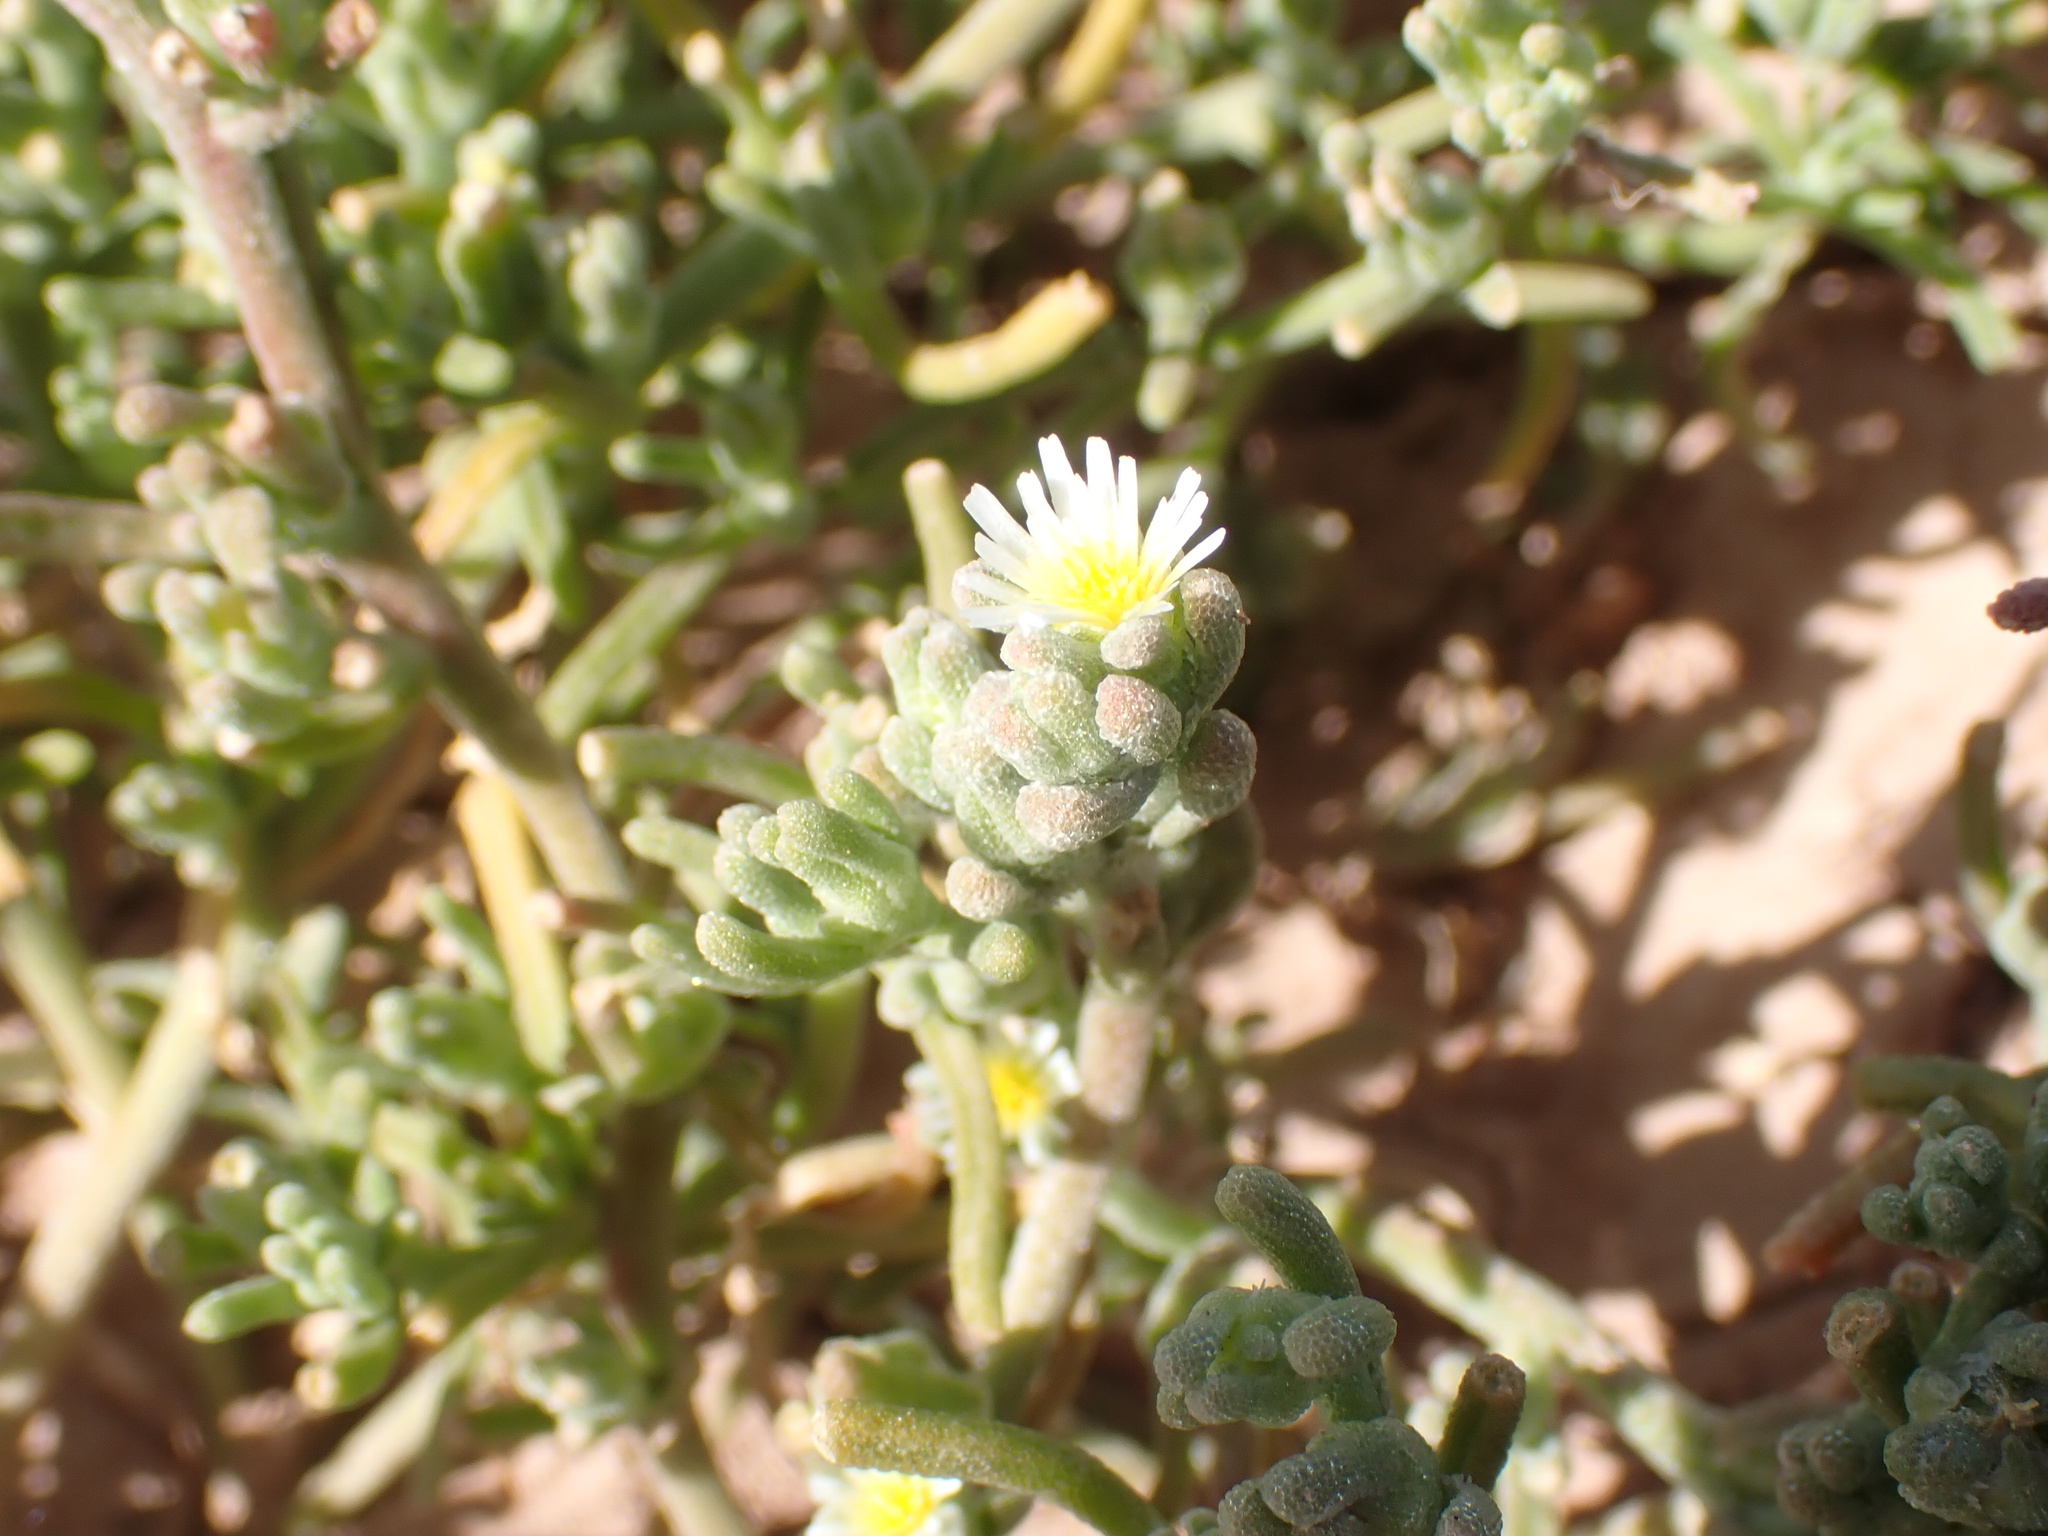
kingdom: Plantae
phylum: Tracheophyta
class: Magnoliopsida
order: Caryophyllales
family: Aizoaceae
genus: Mesembryanthemum
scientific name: Mesembryanthemum nodiflorum
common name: Slenderleaf iceplant
